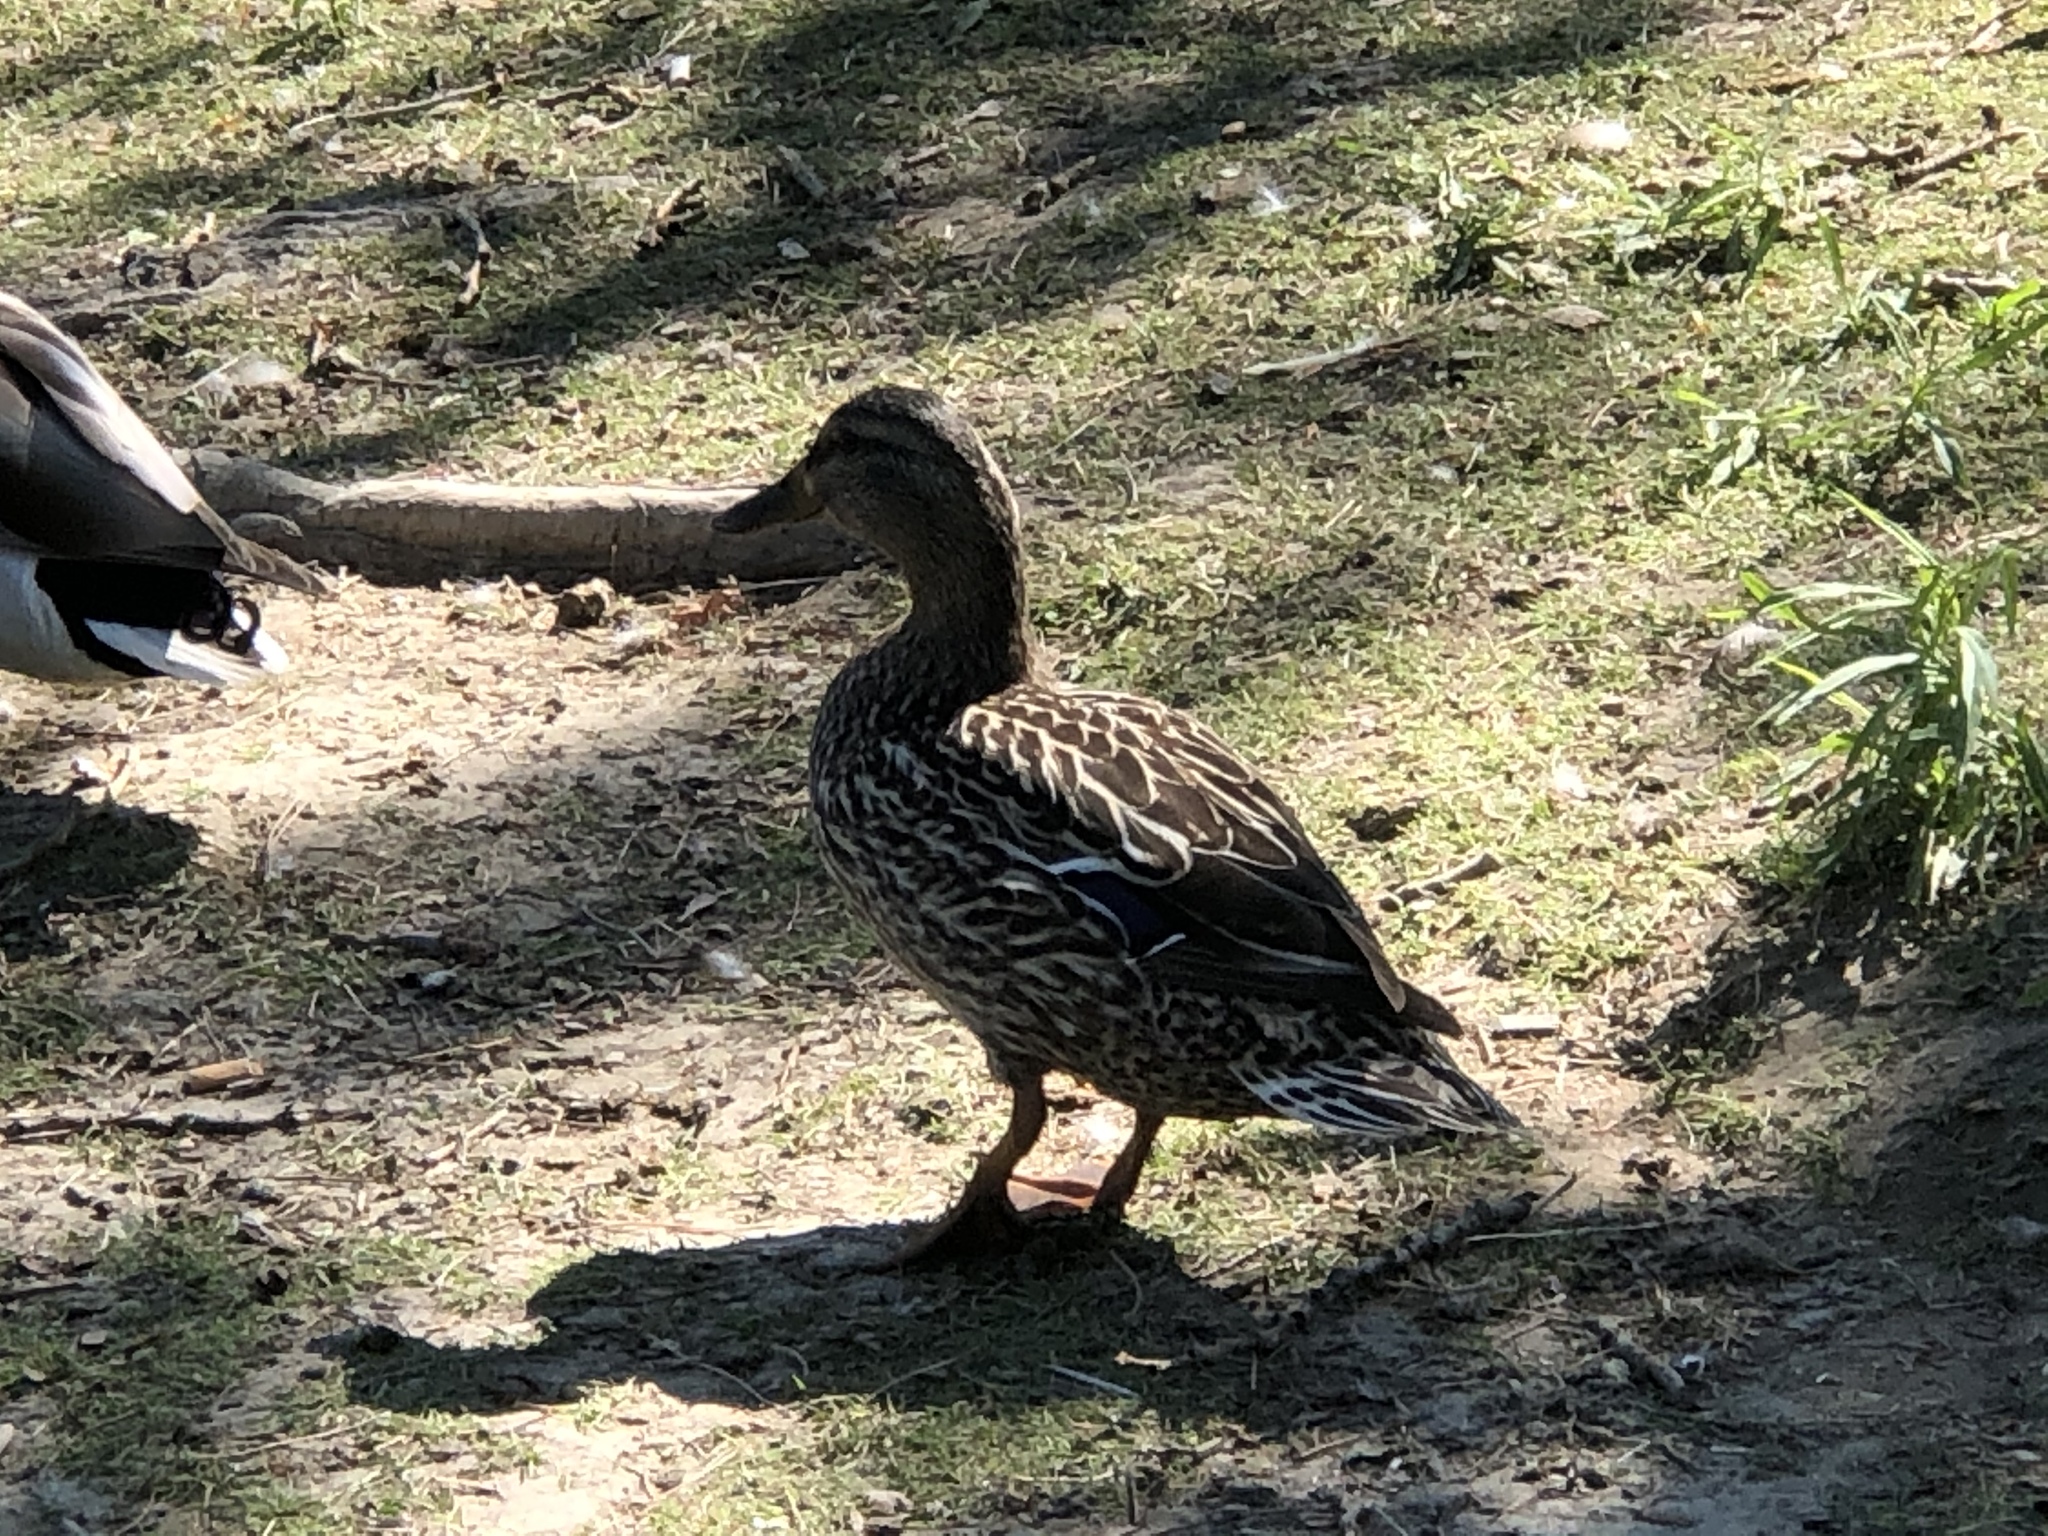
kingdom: Animalia
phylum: Chordata
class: Aves
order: Anseriformes
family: Anatidae
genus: Anas
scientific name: Anas platyrhynchos
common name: Mallard
